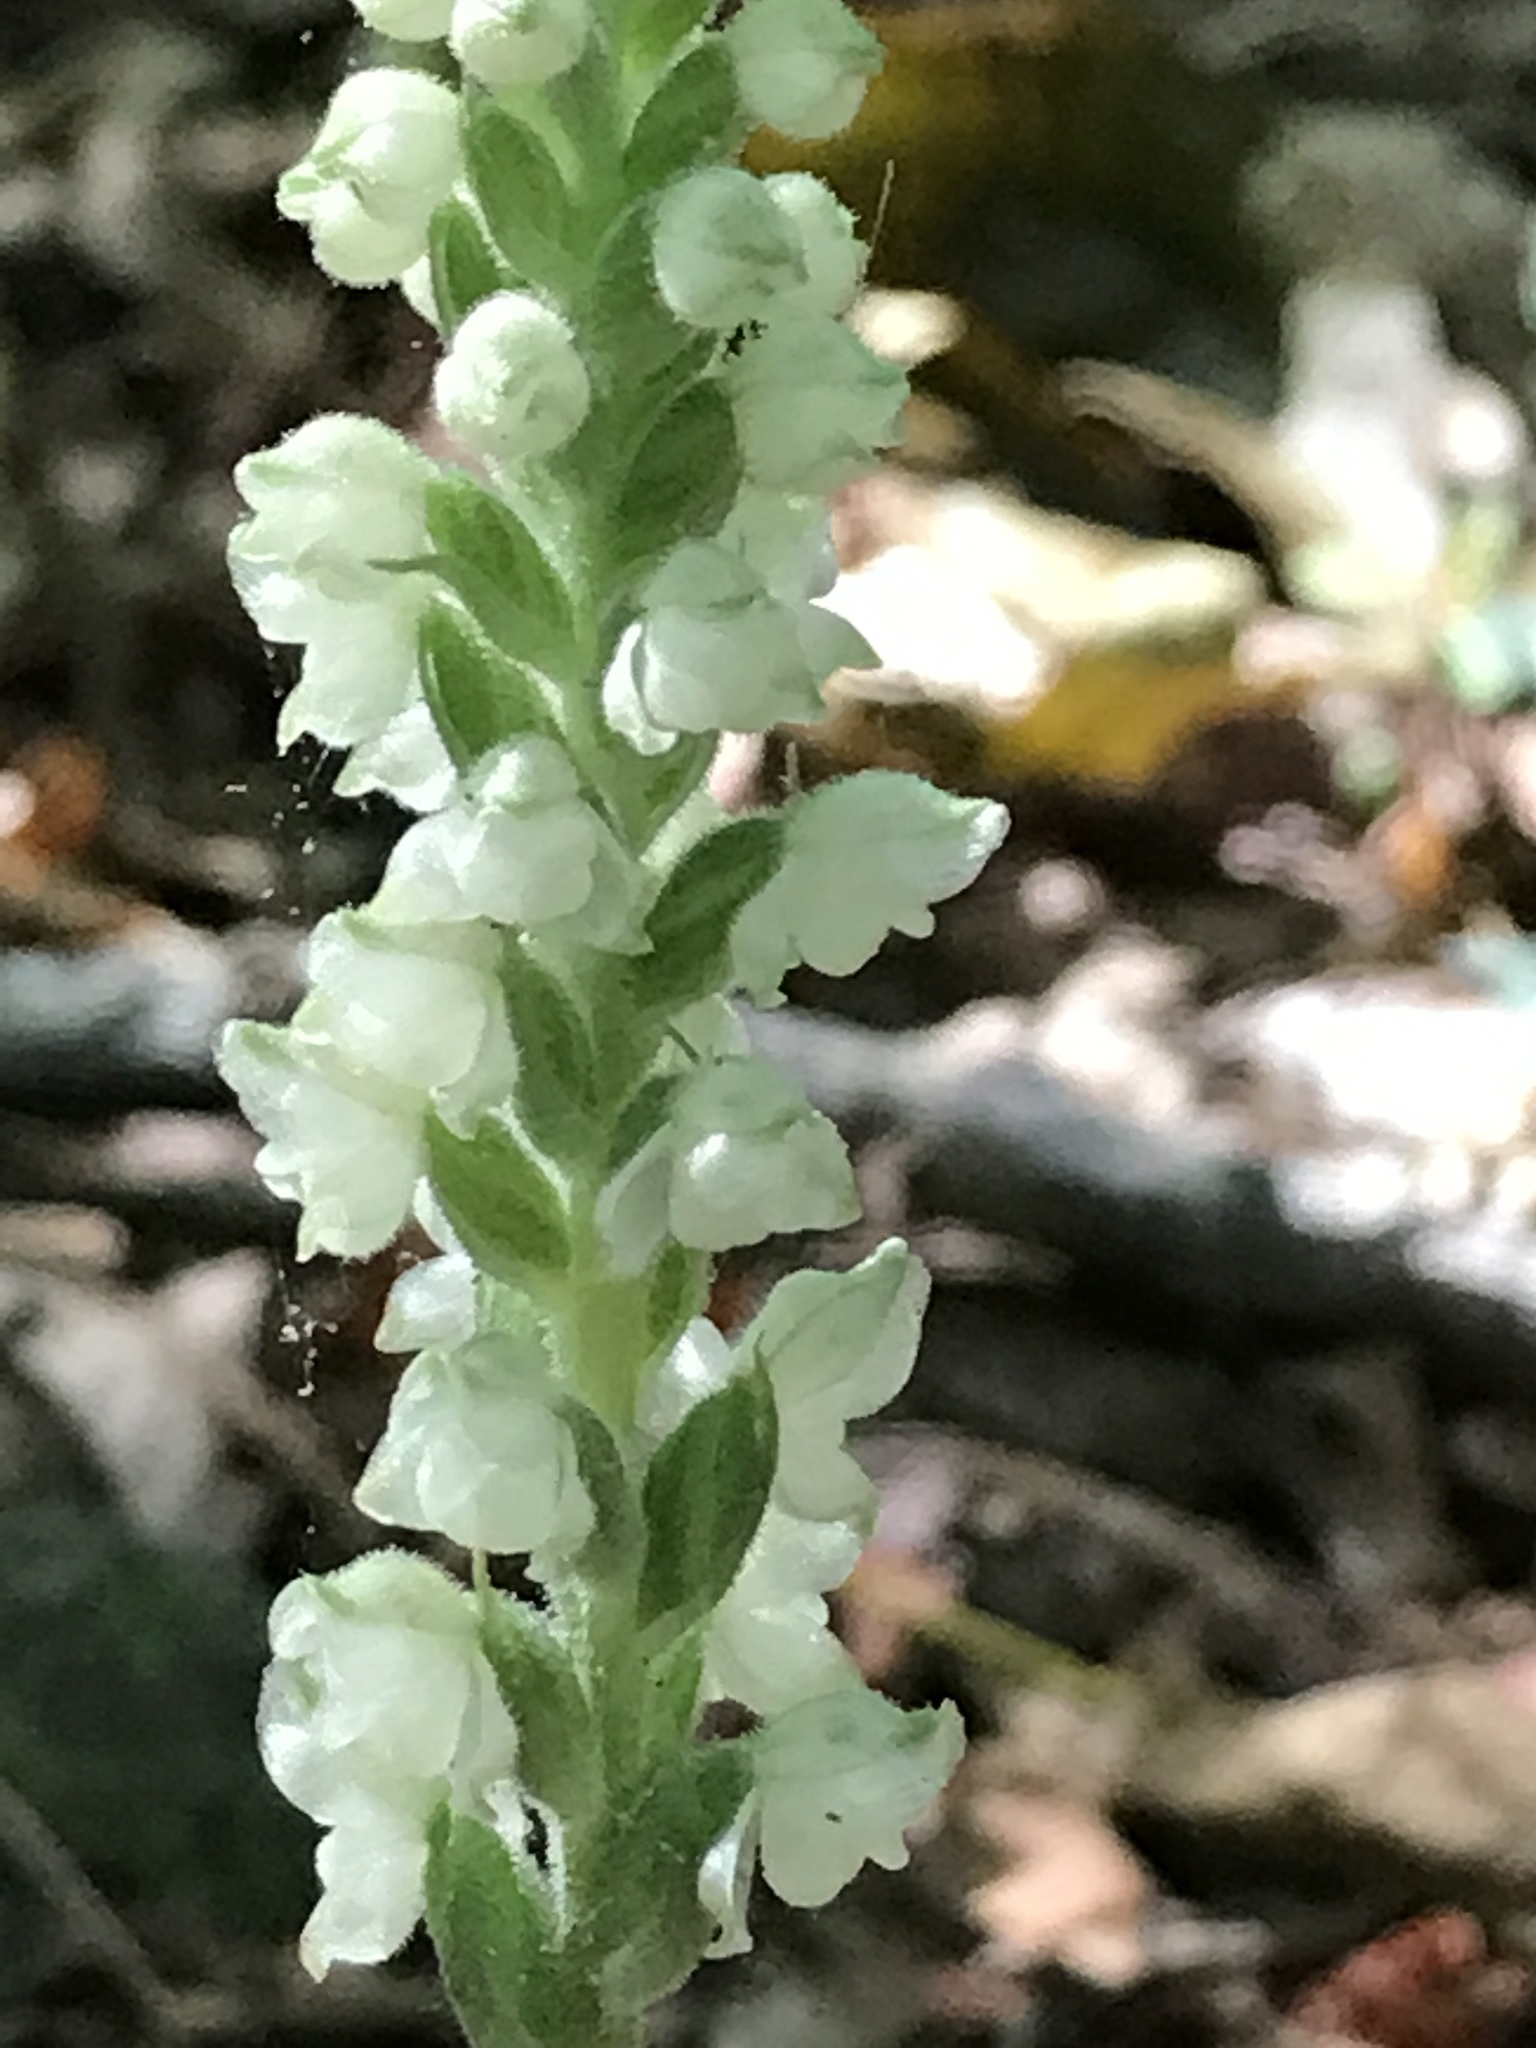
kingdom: Plantae
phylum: Tracheophyta
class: Liliopsida
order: Asparagales
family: Orchidaceae
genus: Goodyera
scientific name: Goodyera pubescens
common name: Downy rattlesnake-plantain
